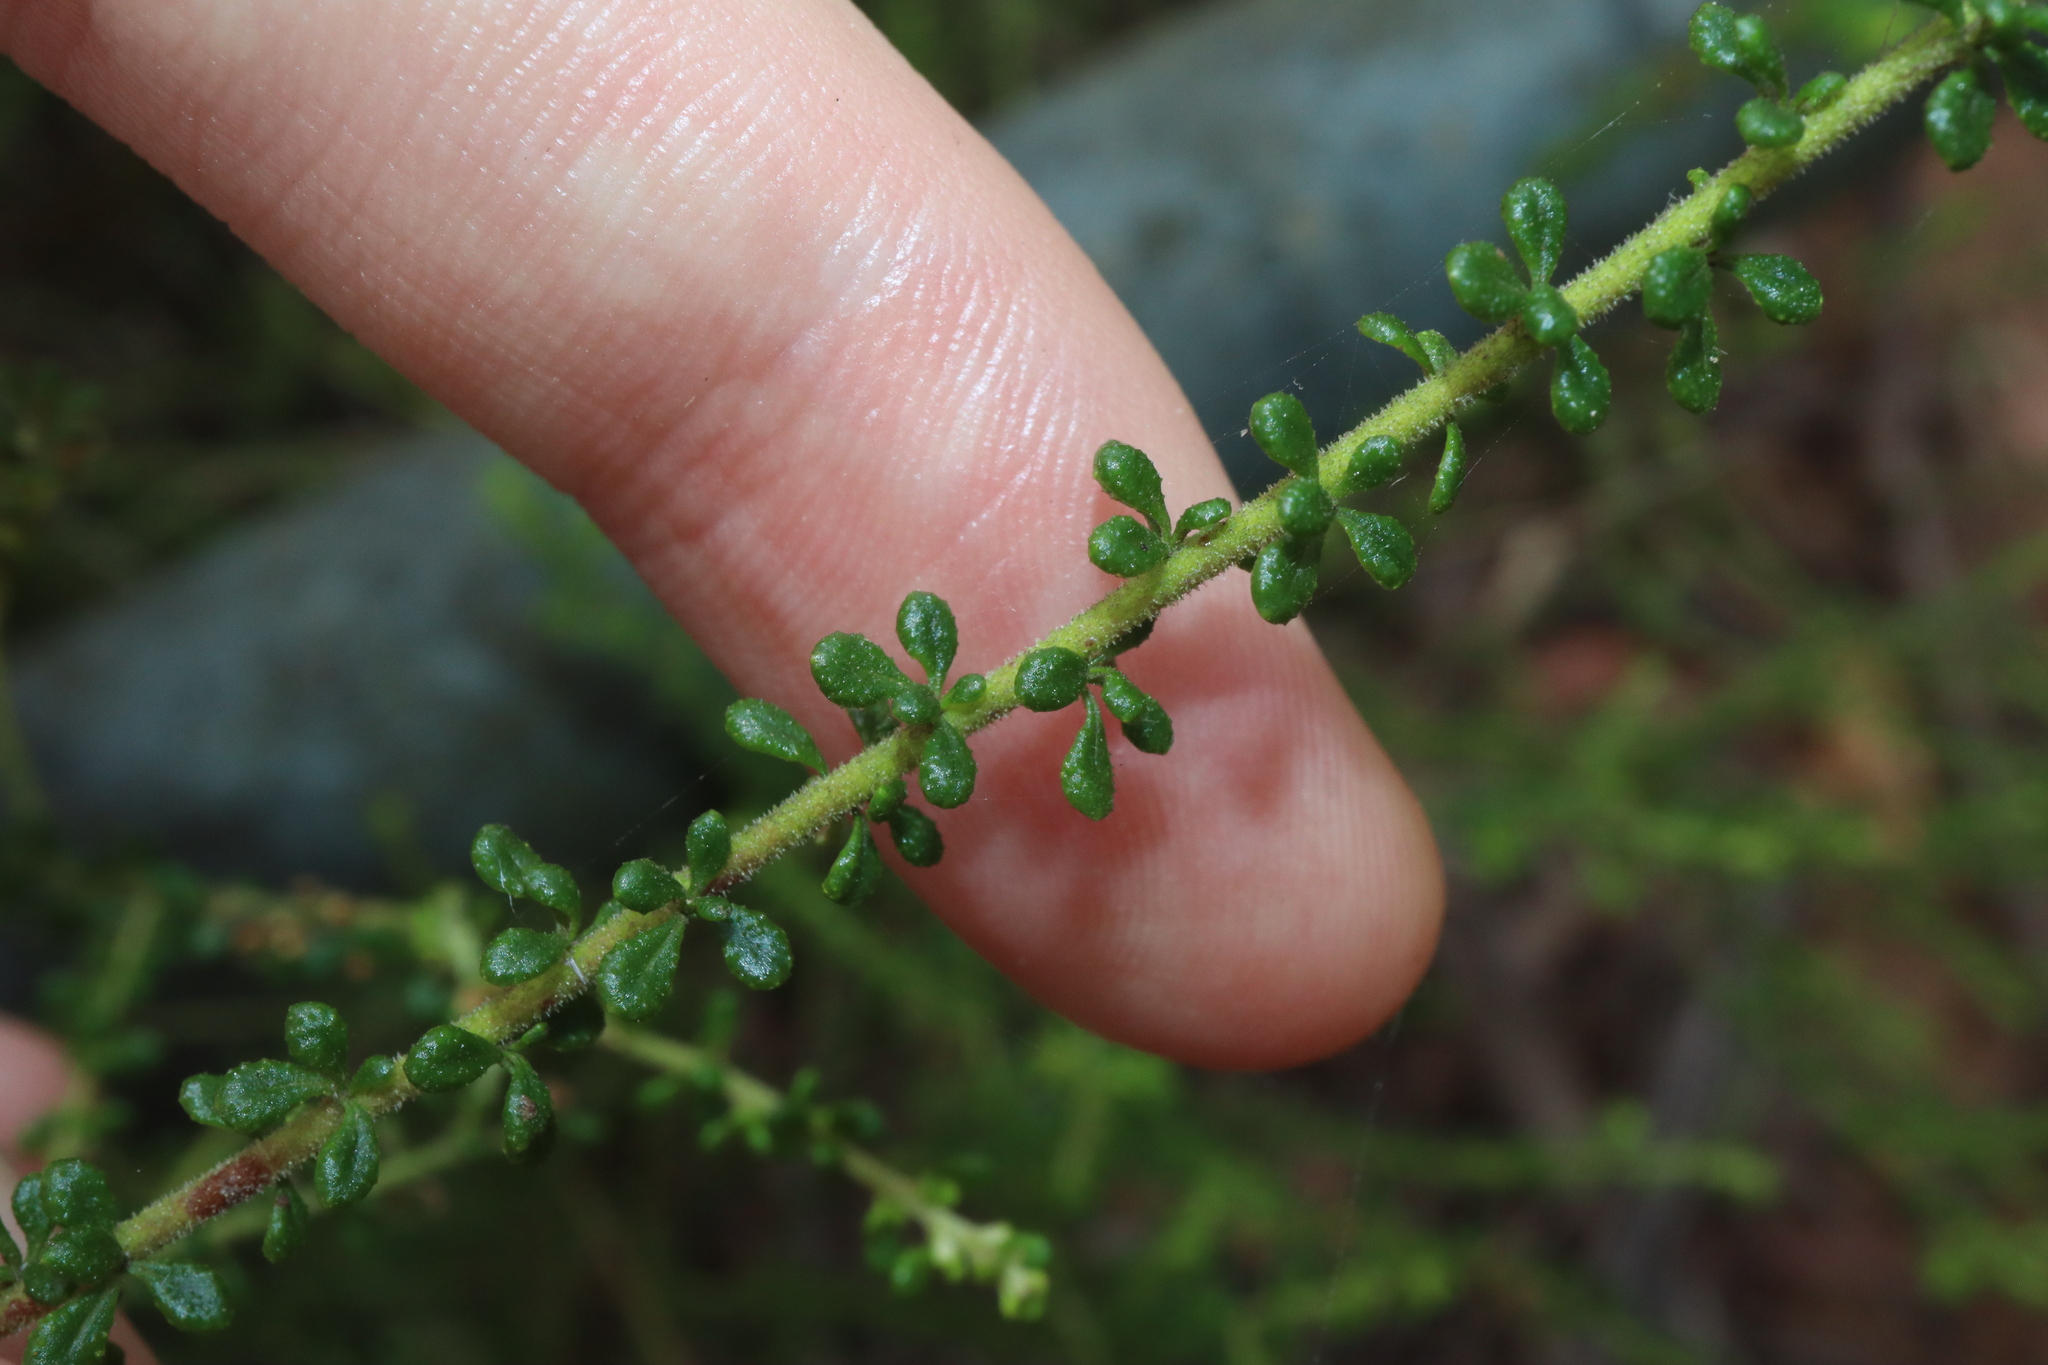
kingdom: Plantae
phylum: Tracheophyta
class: Magnoliopsida
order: Asterales
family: Asteraceae
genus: Olearia
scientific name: Olearia microphylla
